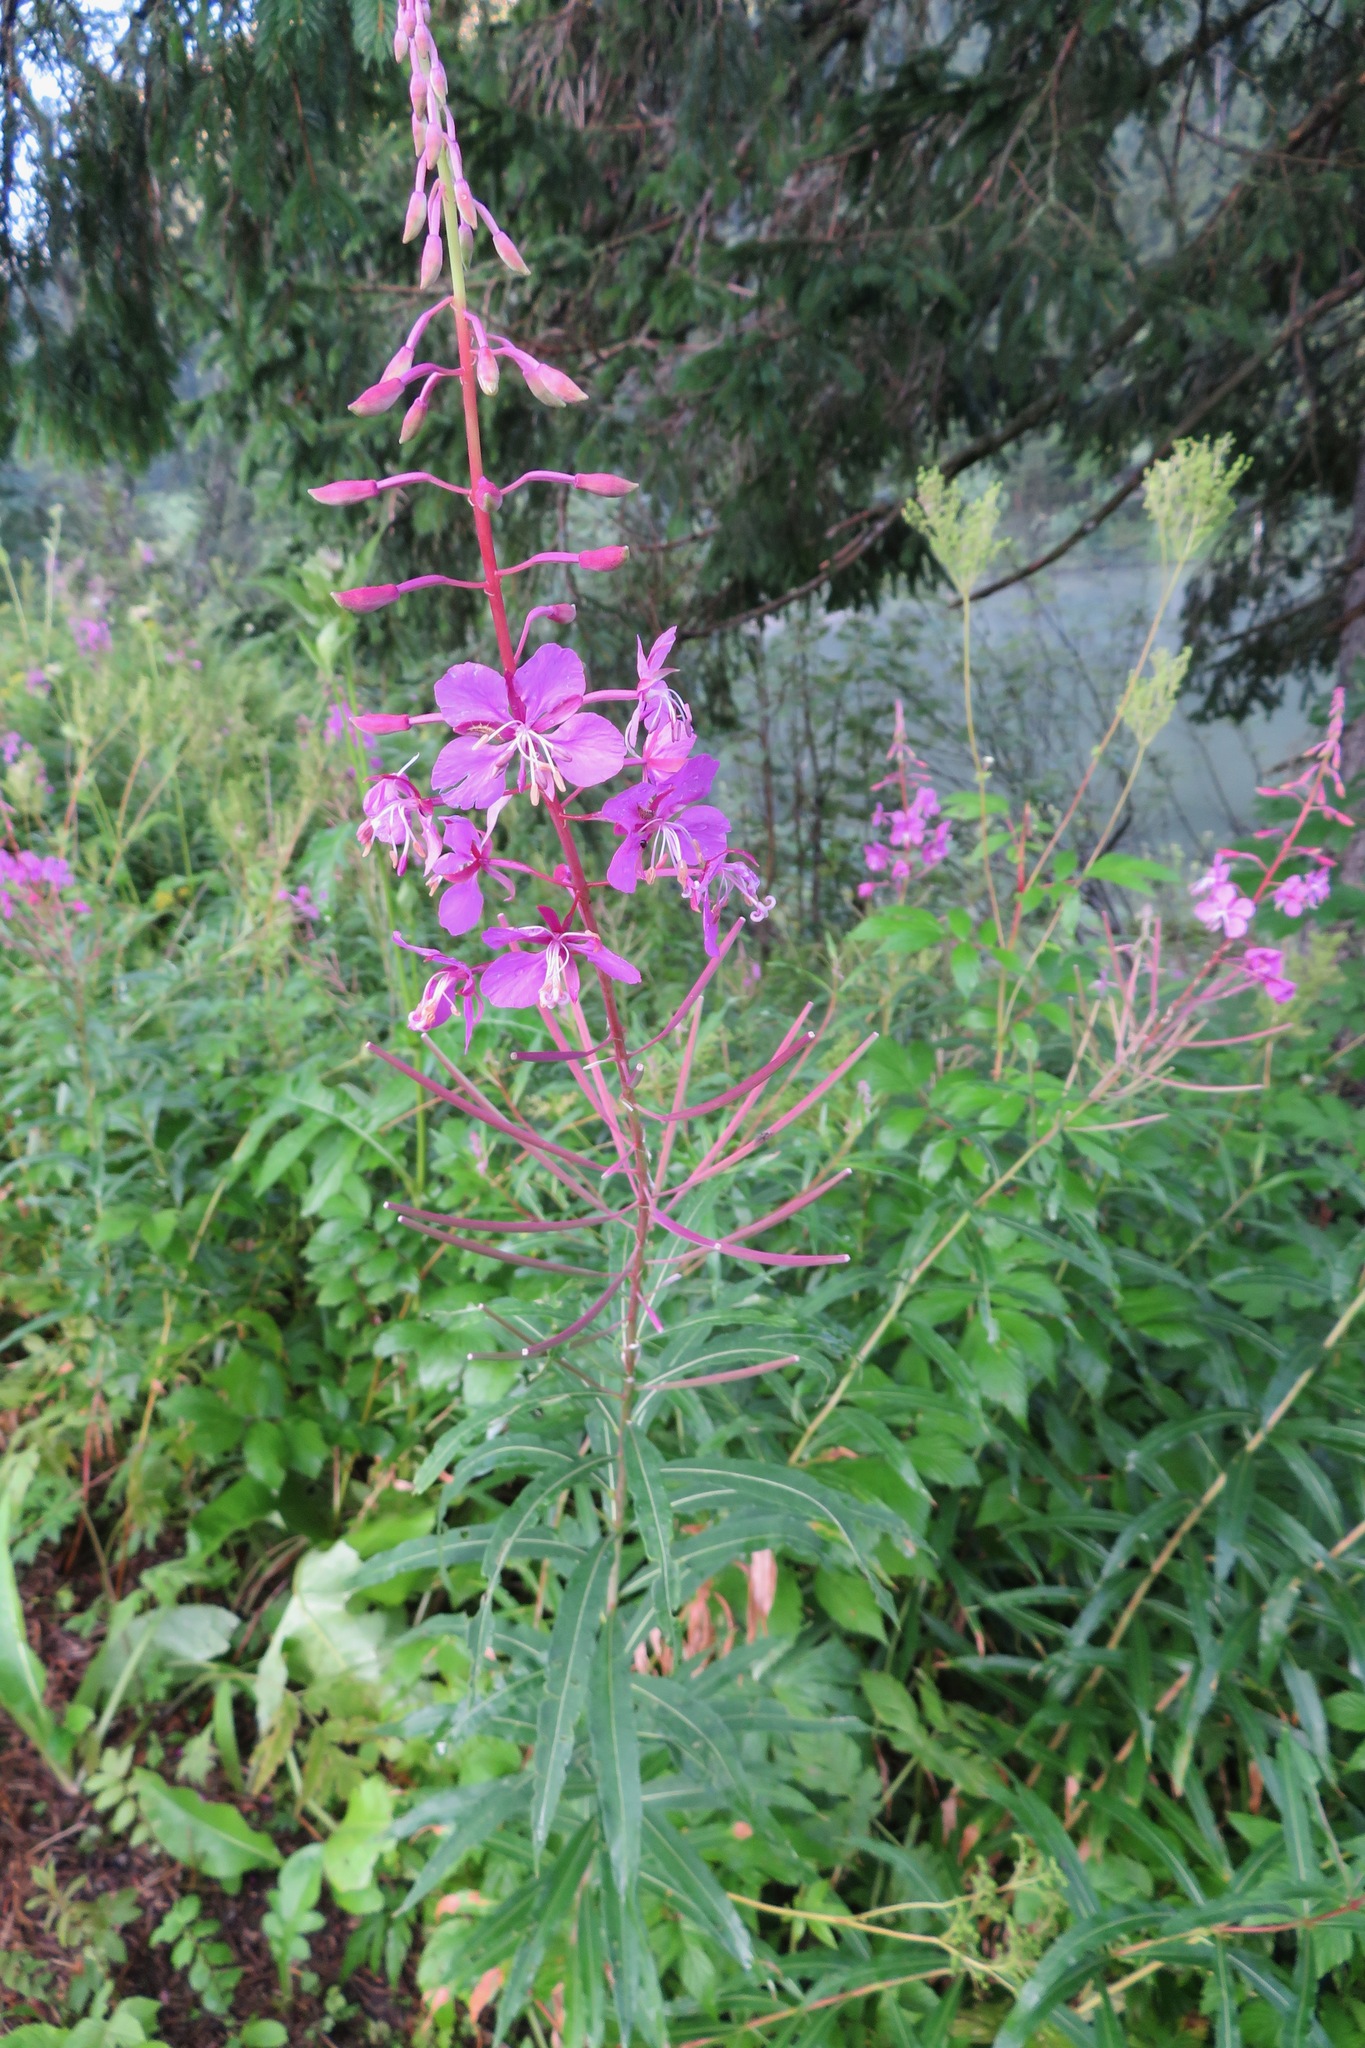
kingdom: Plantae
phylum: Tracheophyta
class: Magnoliopsida
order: Myrtales
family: Onagraceae
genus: Chamaenerion
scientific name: Chamaenerion angustifolium
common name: Fireweed
